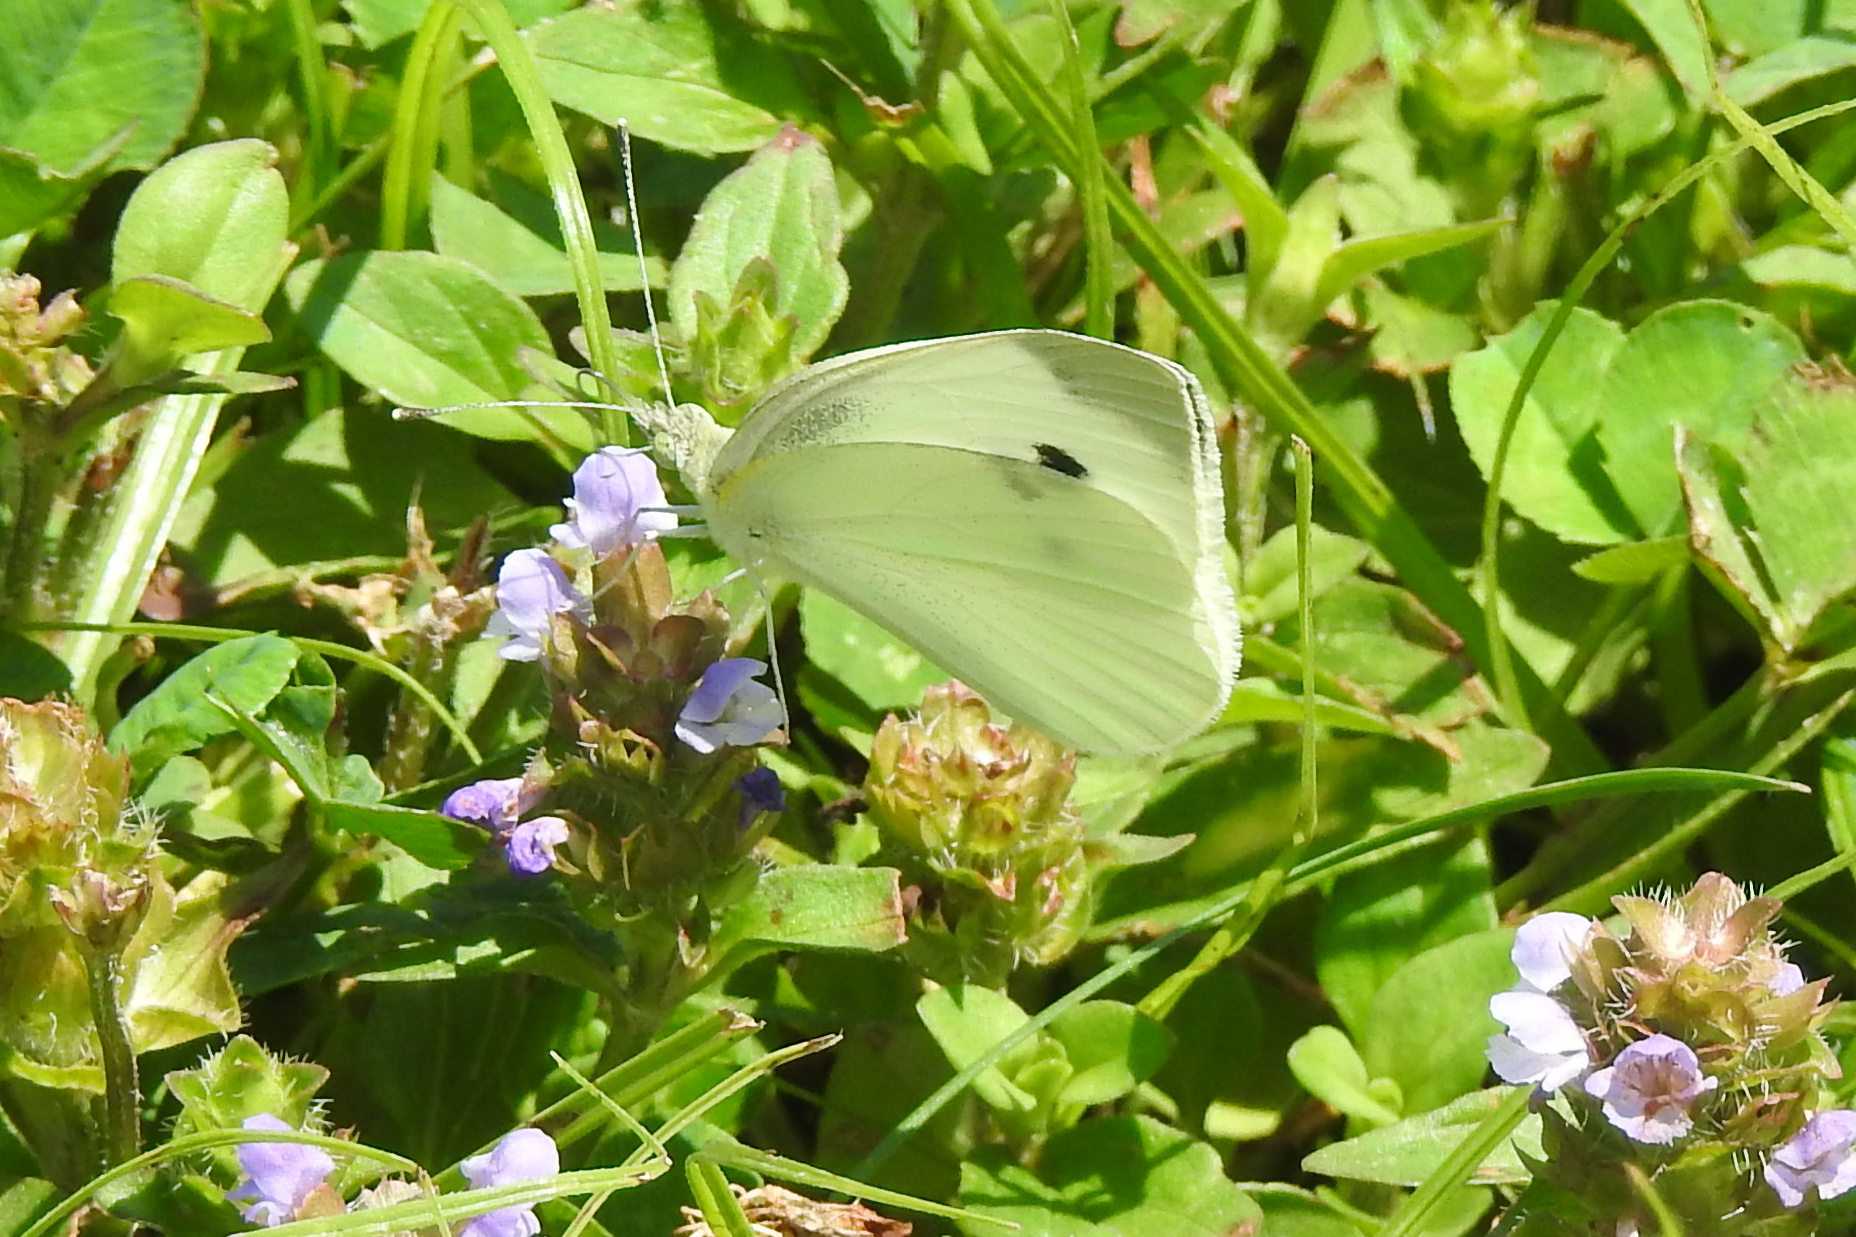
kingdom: Animalia
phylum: Arthropoda
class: Insecta
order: Lepidoptera
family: Pieridae
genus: Pieris
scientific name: Pieris rapae
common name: Small white
